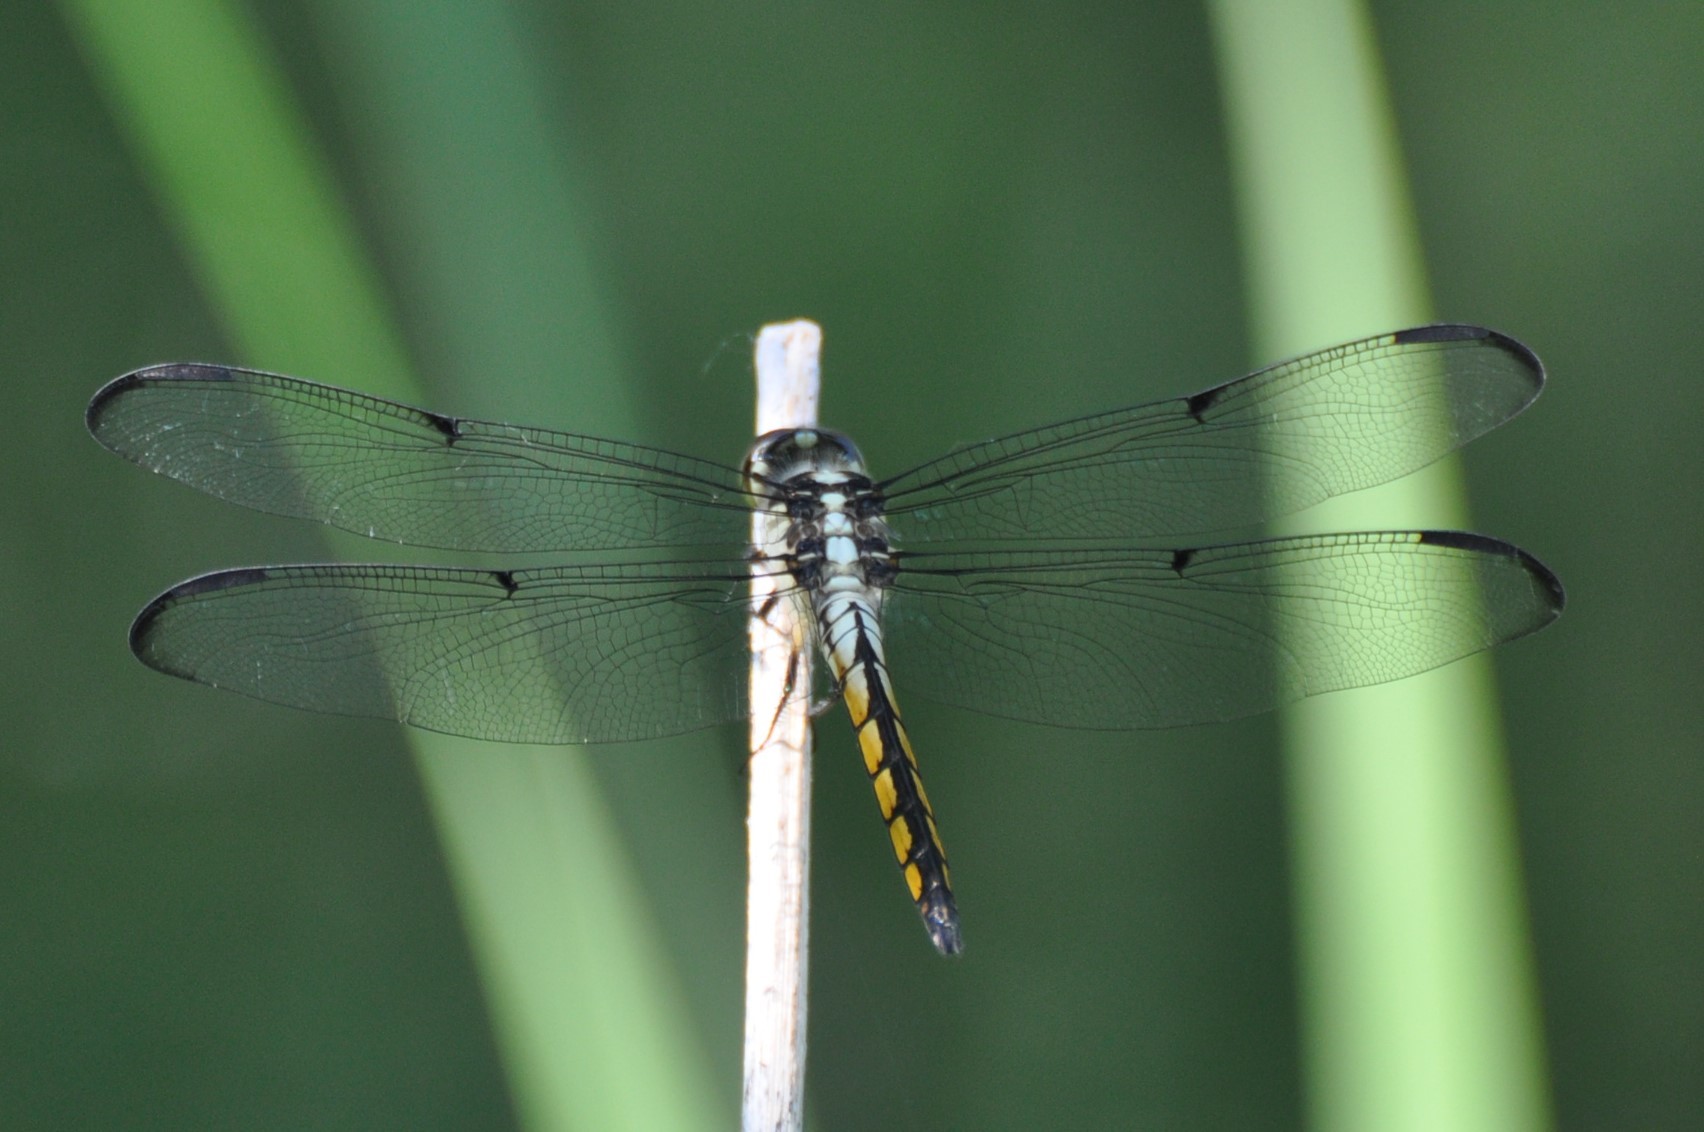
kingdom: Animalia
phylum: Arthropoda
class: Insecta
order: Odonata
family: Libellulidae
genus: Libellula
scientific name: Libellula vibrans
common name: Great blue skimmer
